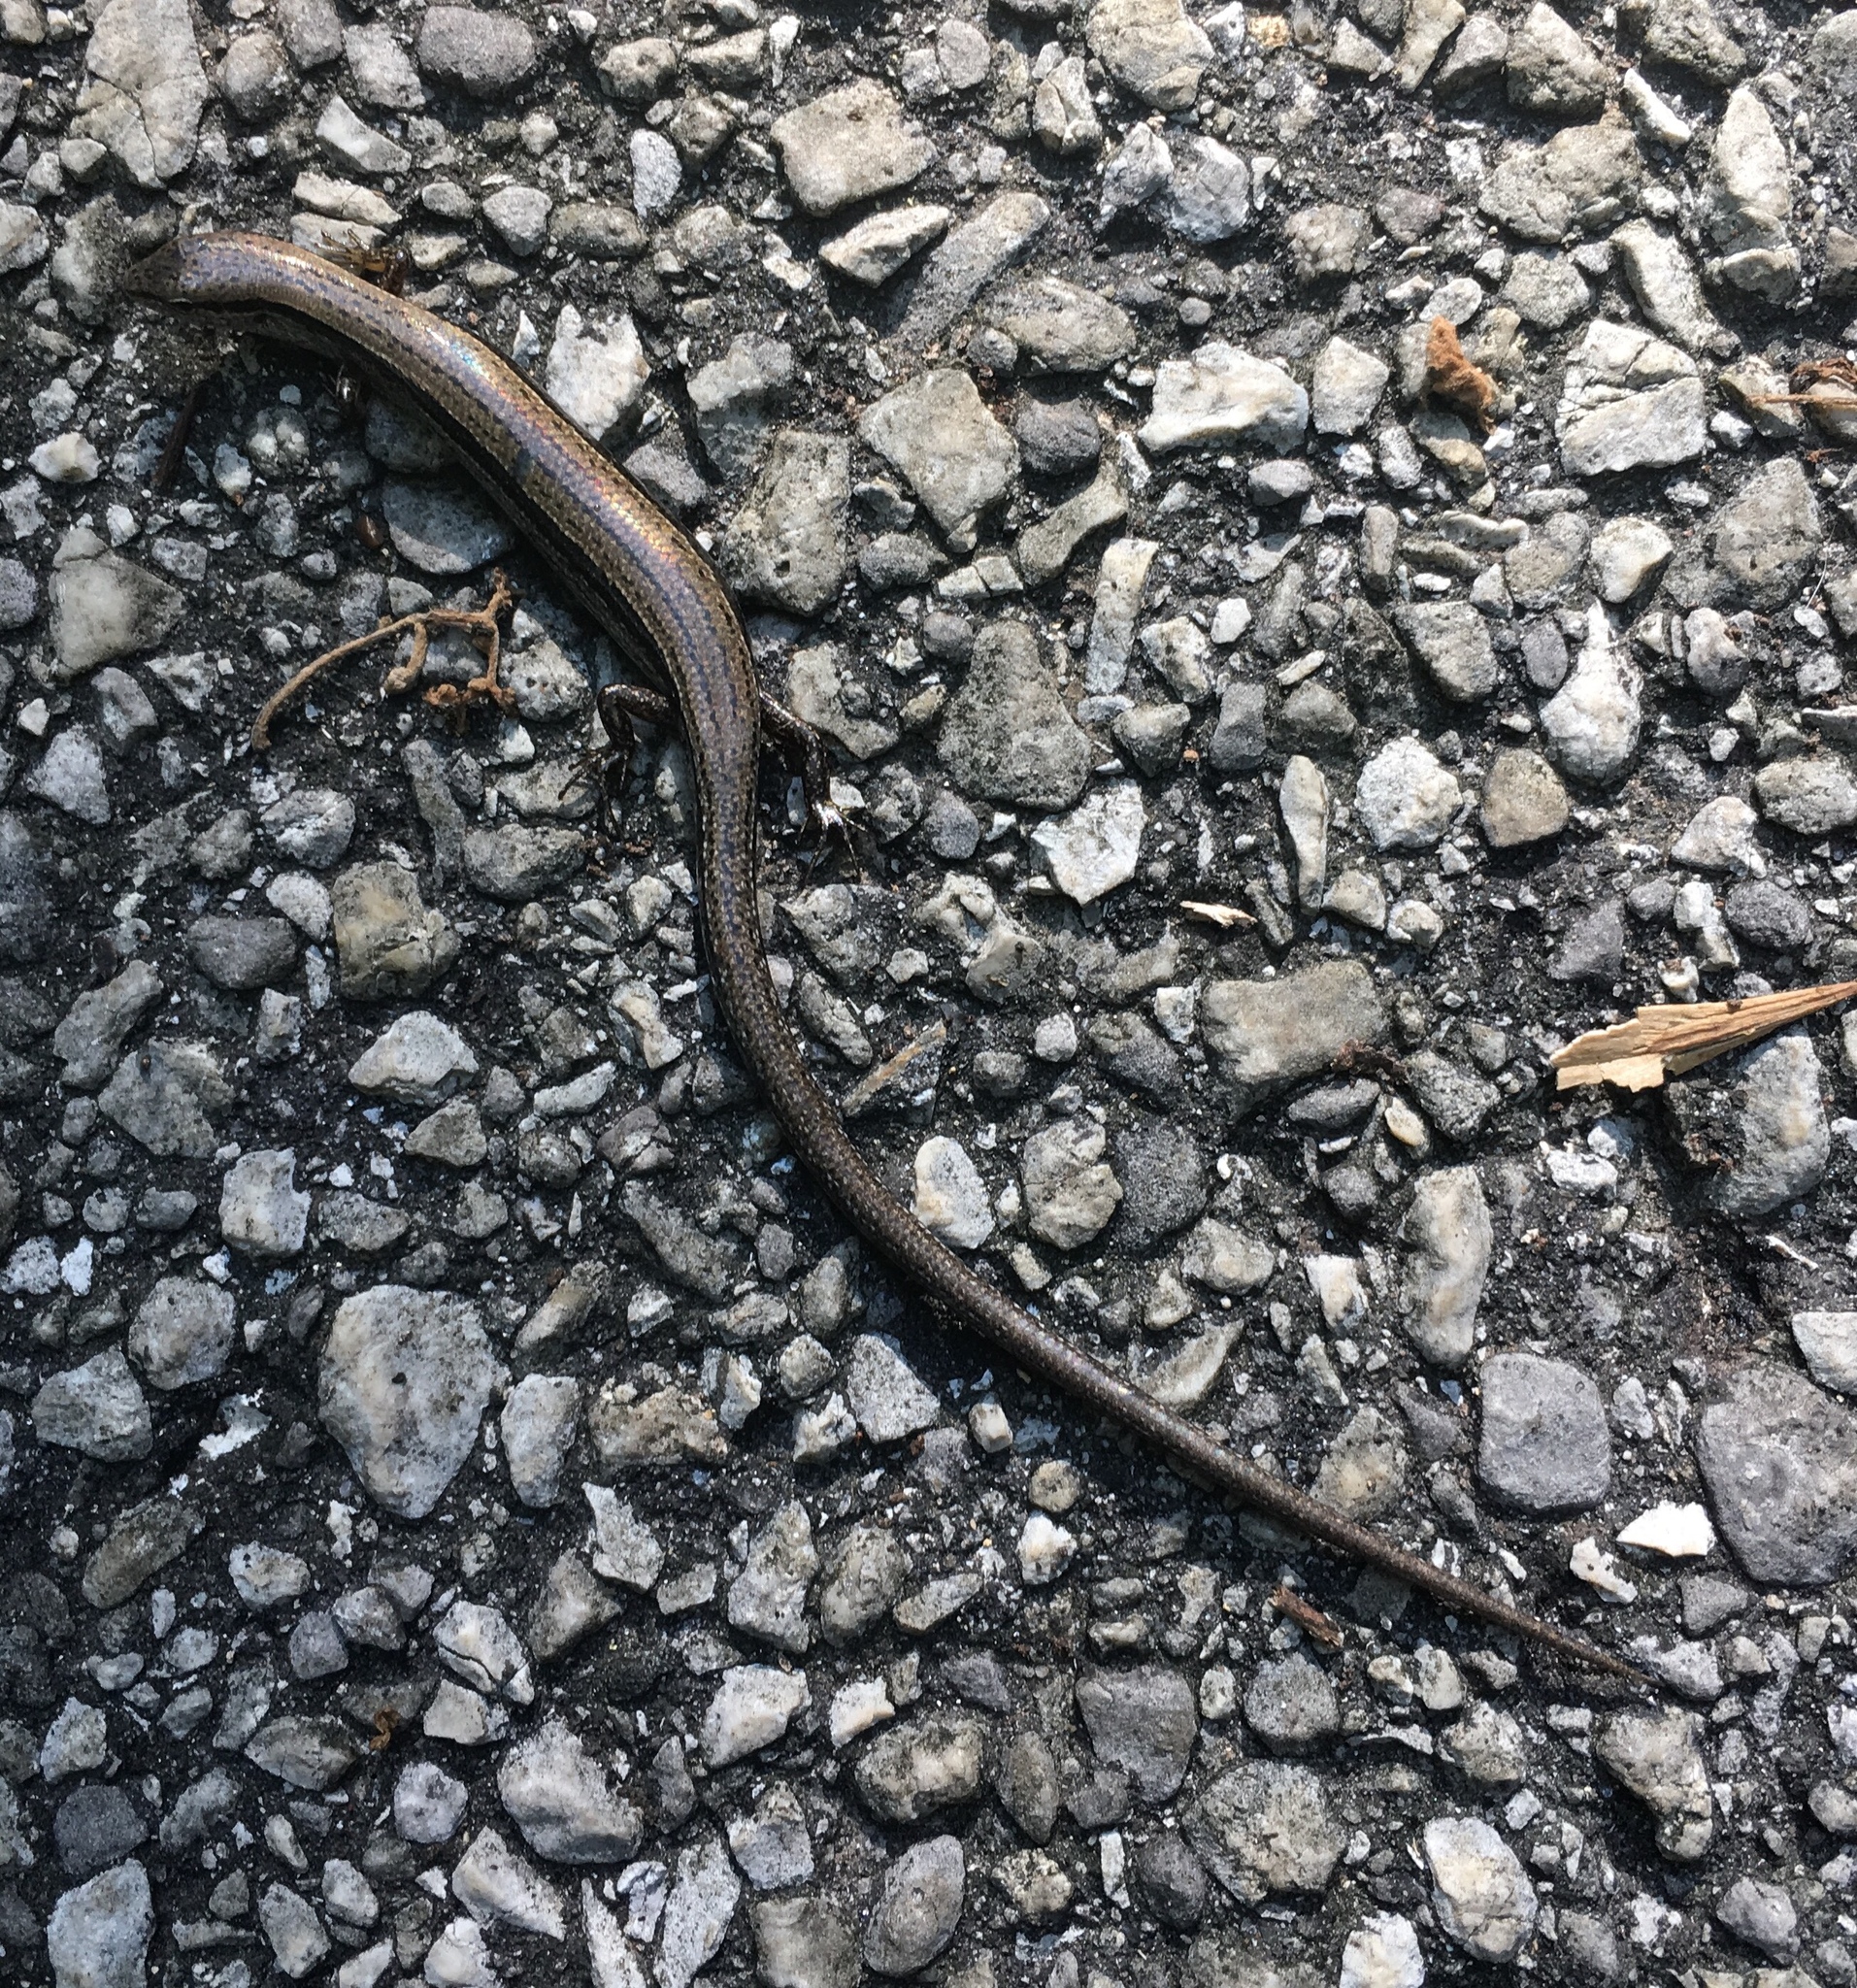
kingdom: Animalia
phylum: Chordata
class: Squamata
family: Scincidae
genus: Scincella
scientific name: Scincella lateralis
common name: Ground skink
